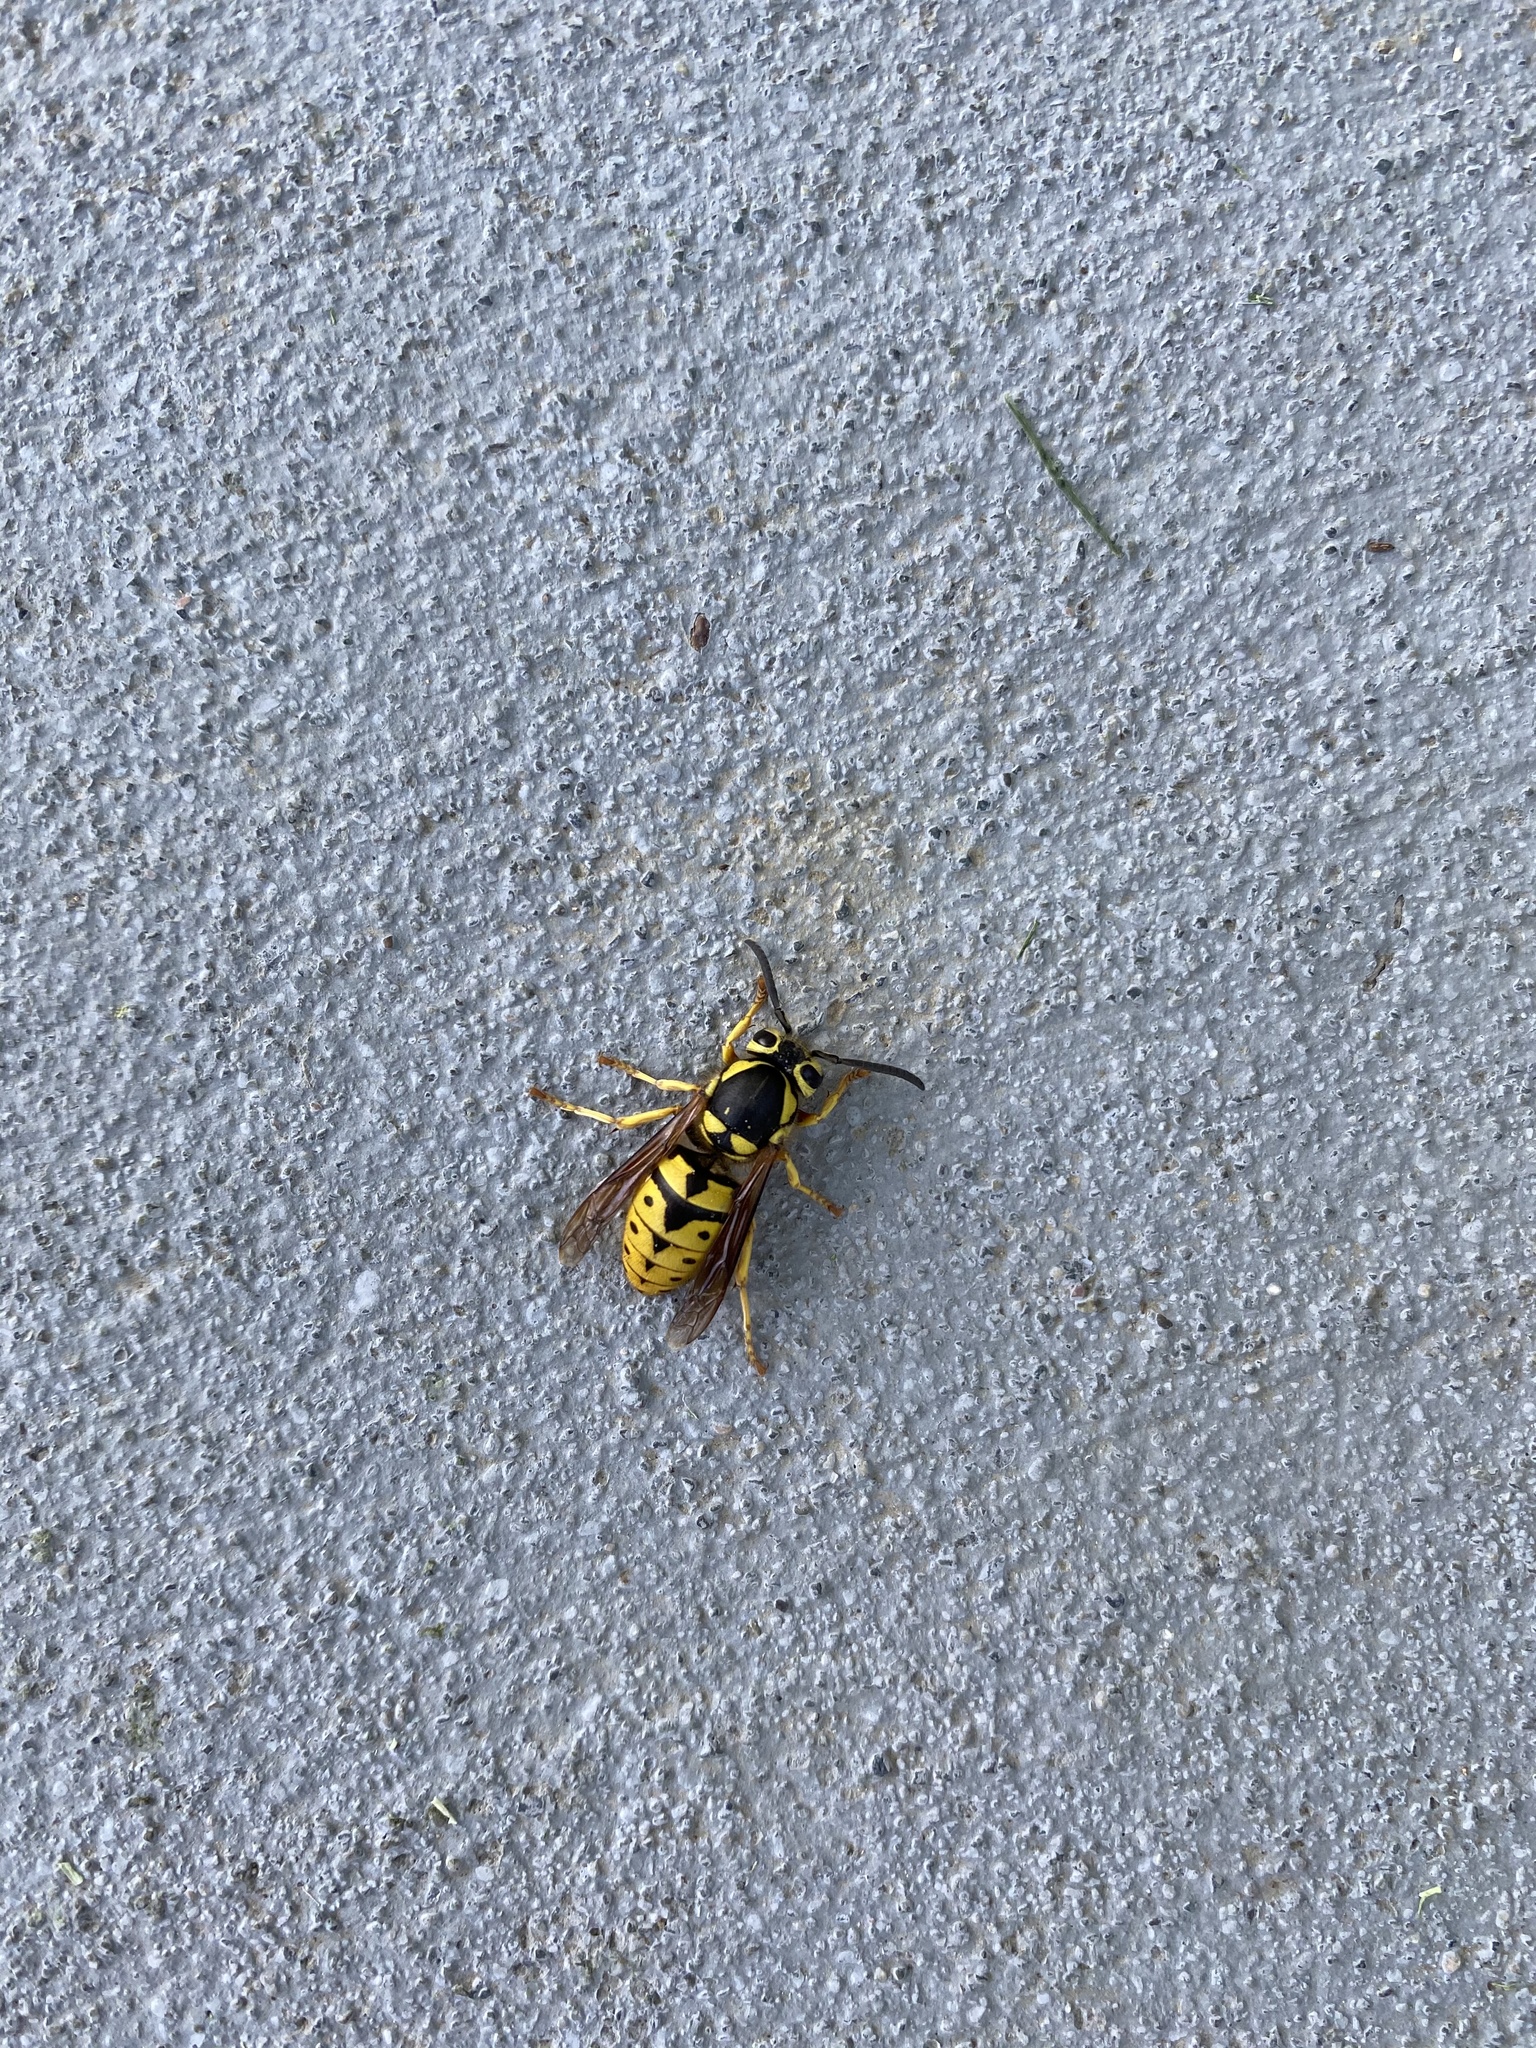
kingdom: Animalia
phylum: Arthropoda
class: Insecta
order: Hymenoptera
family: Vespidae
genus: Vespula
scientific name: Vespula pensylvanica
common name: Western yellowjacket
